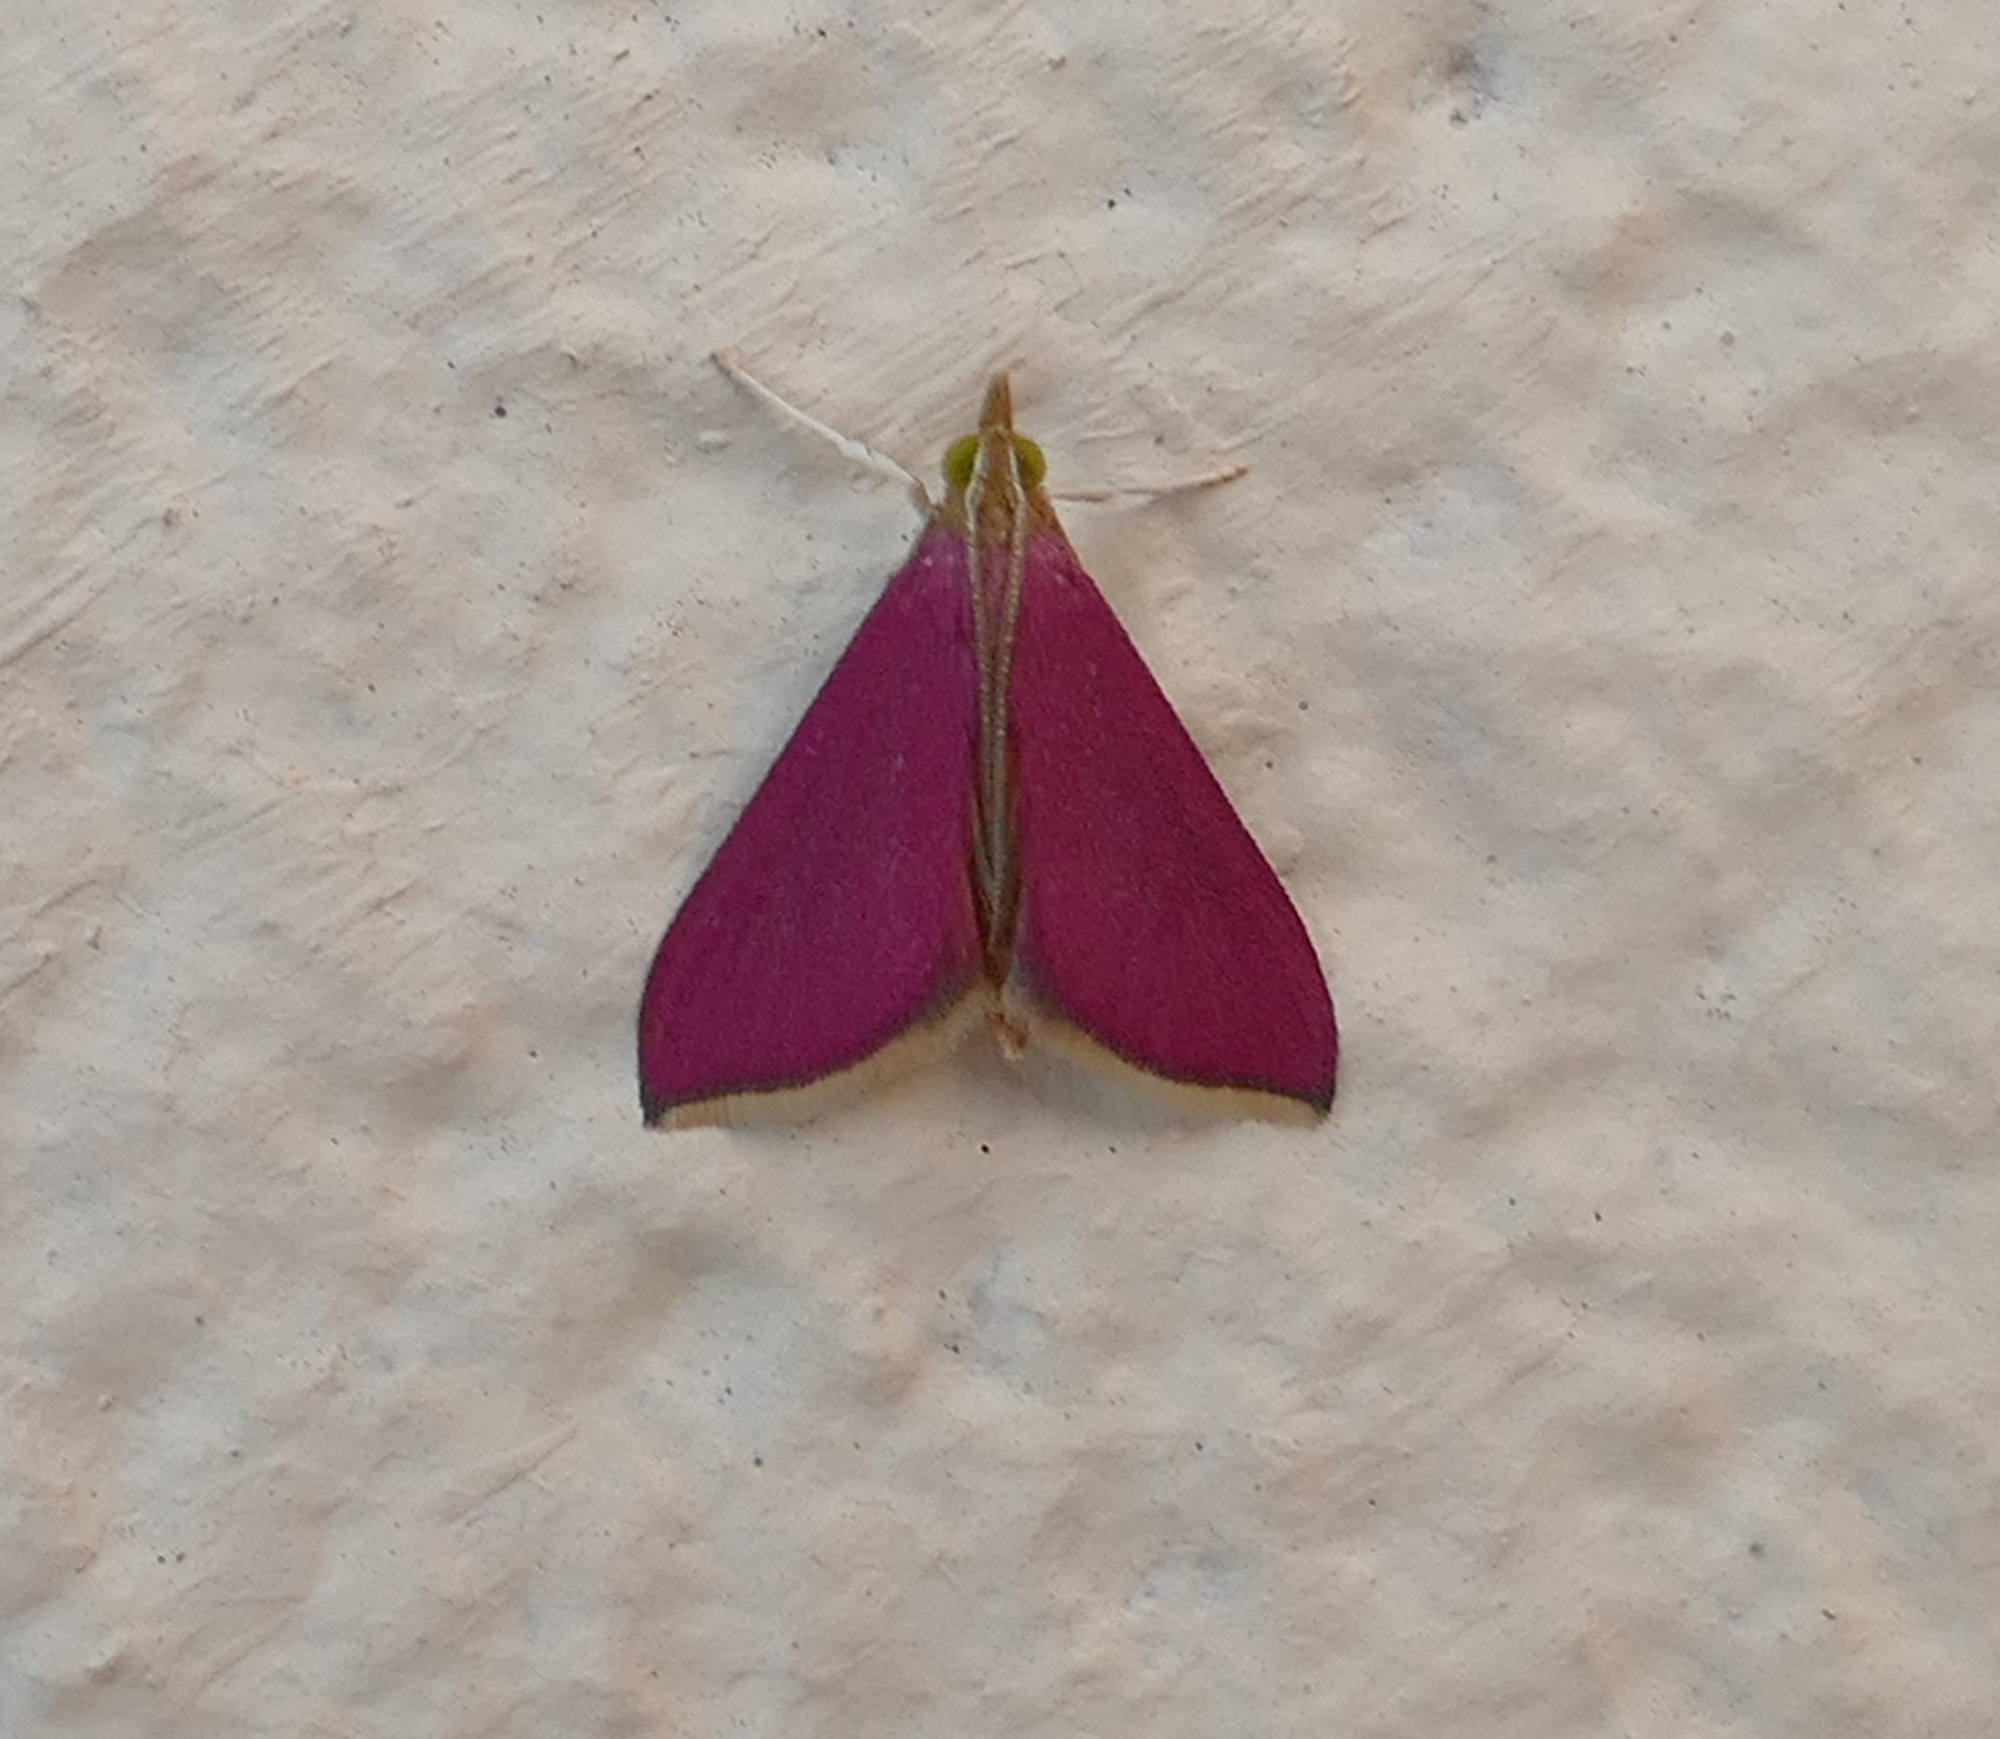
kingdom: Animalia
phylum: Arthropoda
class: Insecta
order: Lepidoptera
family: Crambidae
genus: Pyrausta
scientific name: Pyrausta inornatalis
